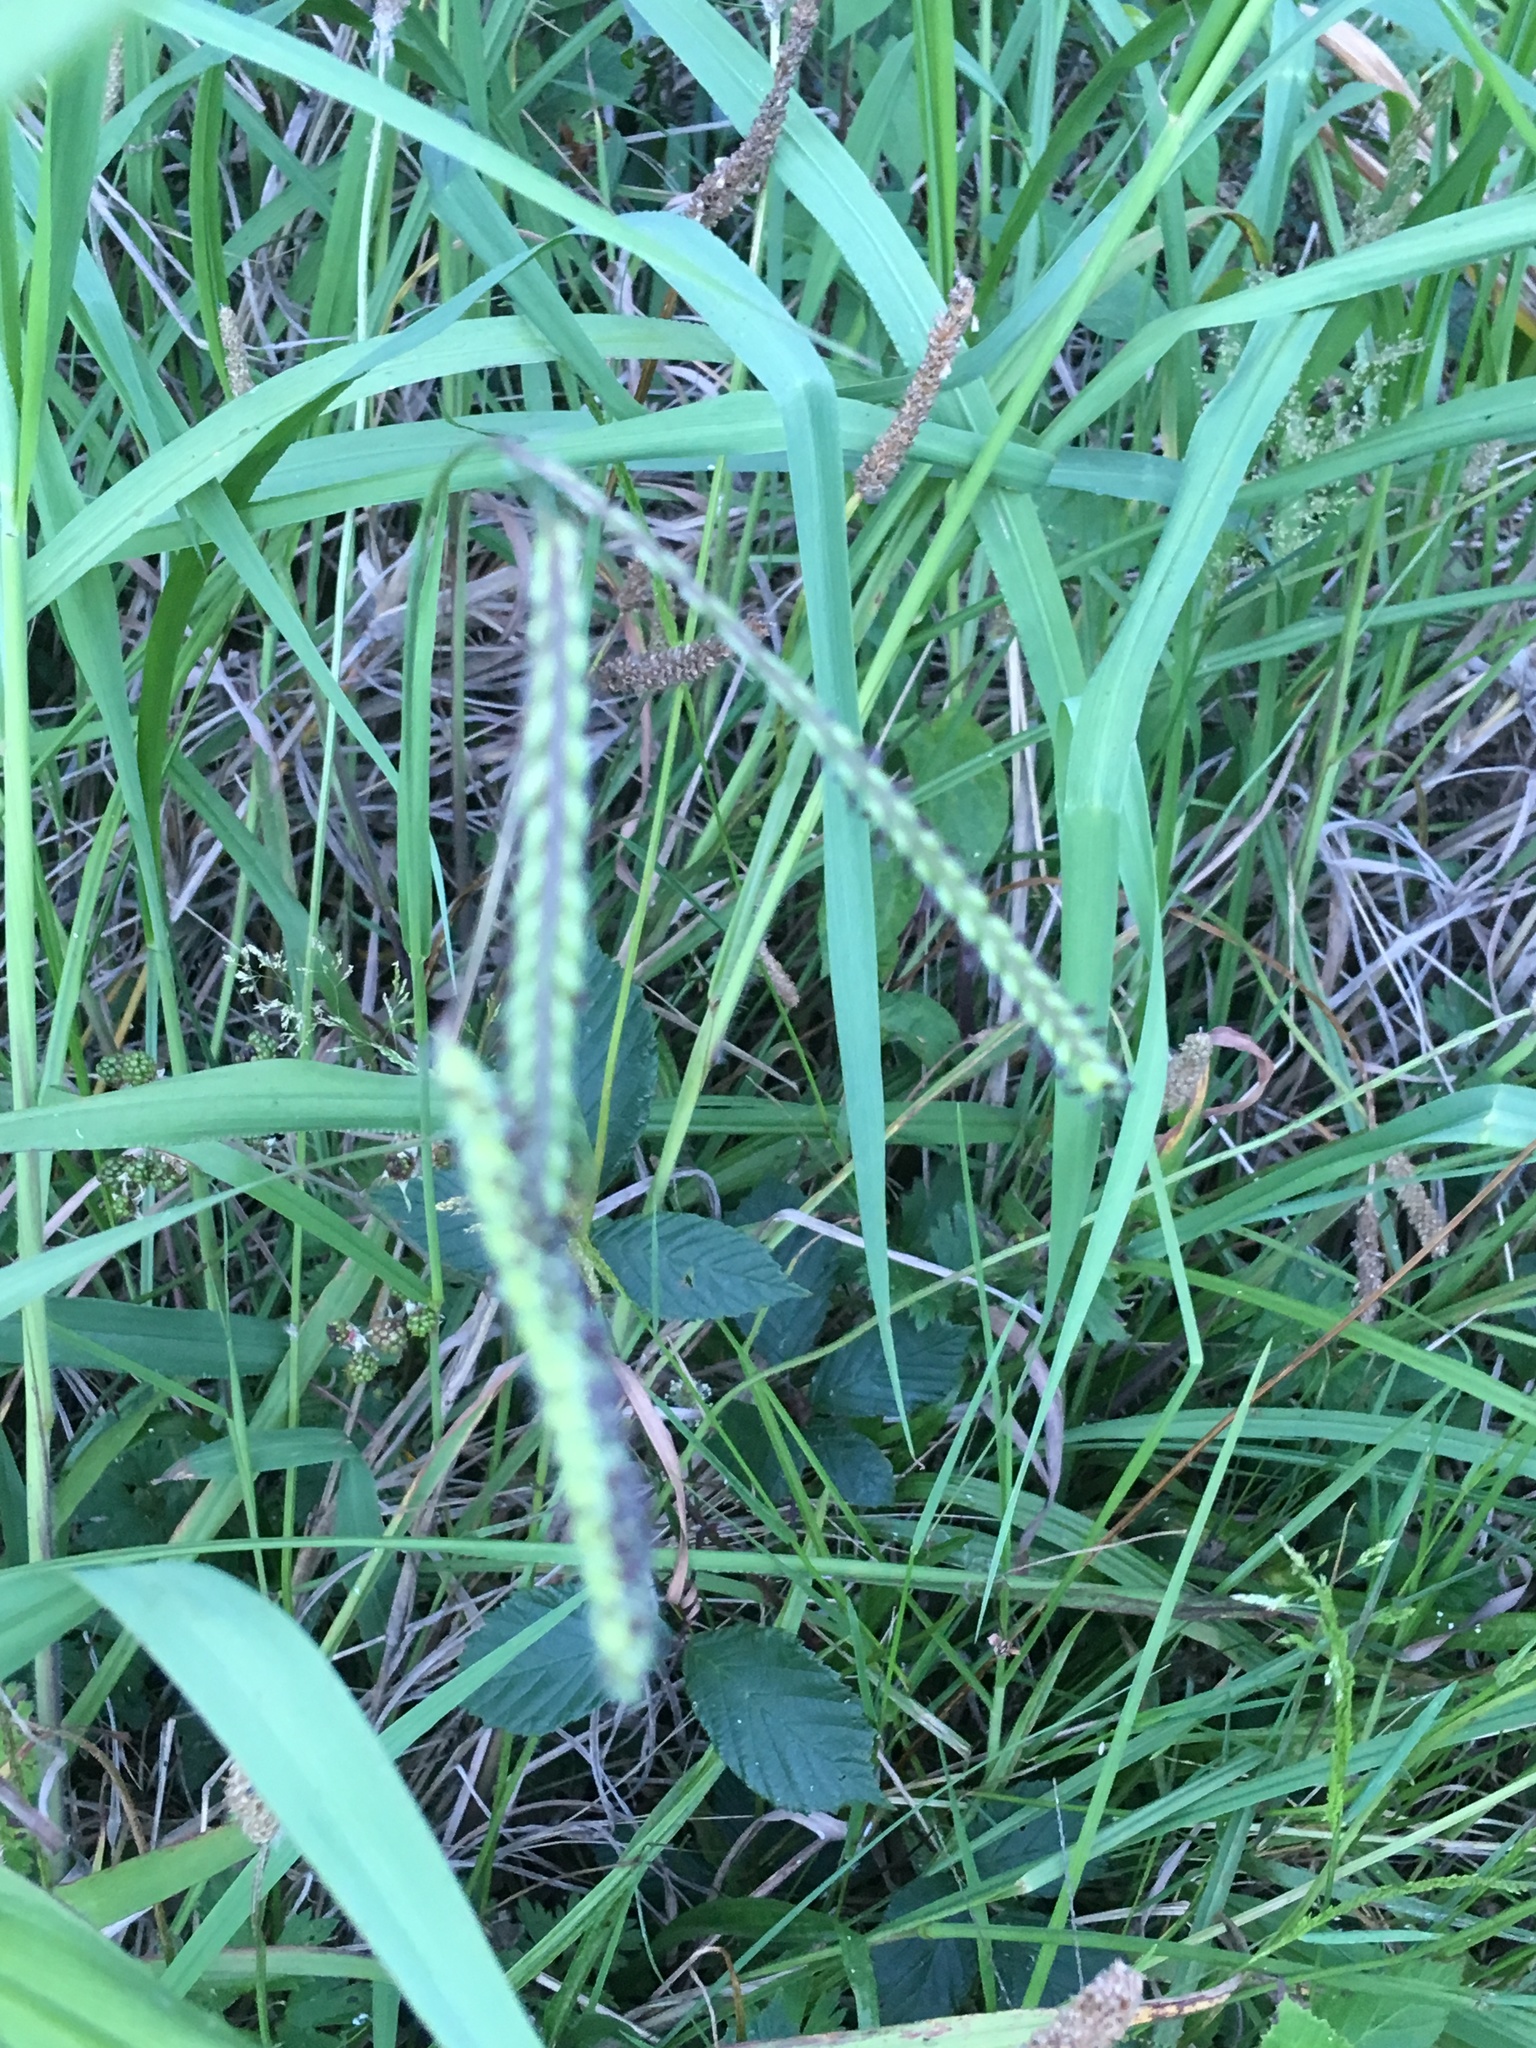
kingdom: Plantae
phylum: Tracheophyta
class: Liliopsida
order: Poales
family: Poaceae
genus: Paspalum
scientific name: Paspalum dilatatum
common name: Dallisgrass
